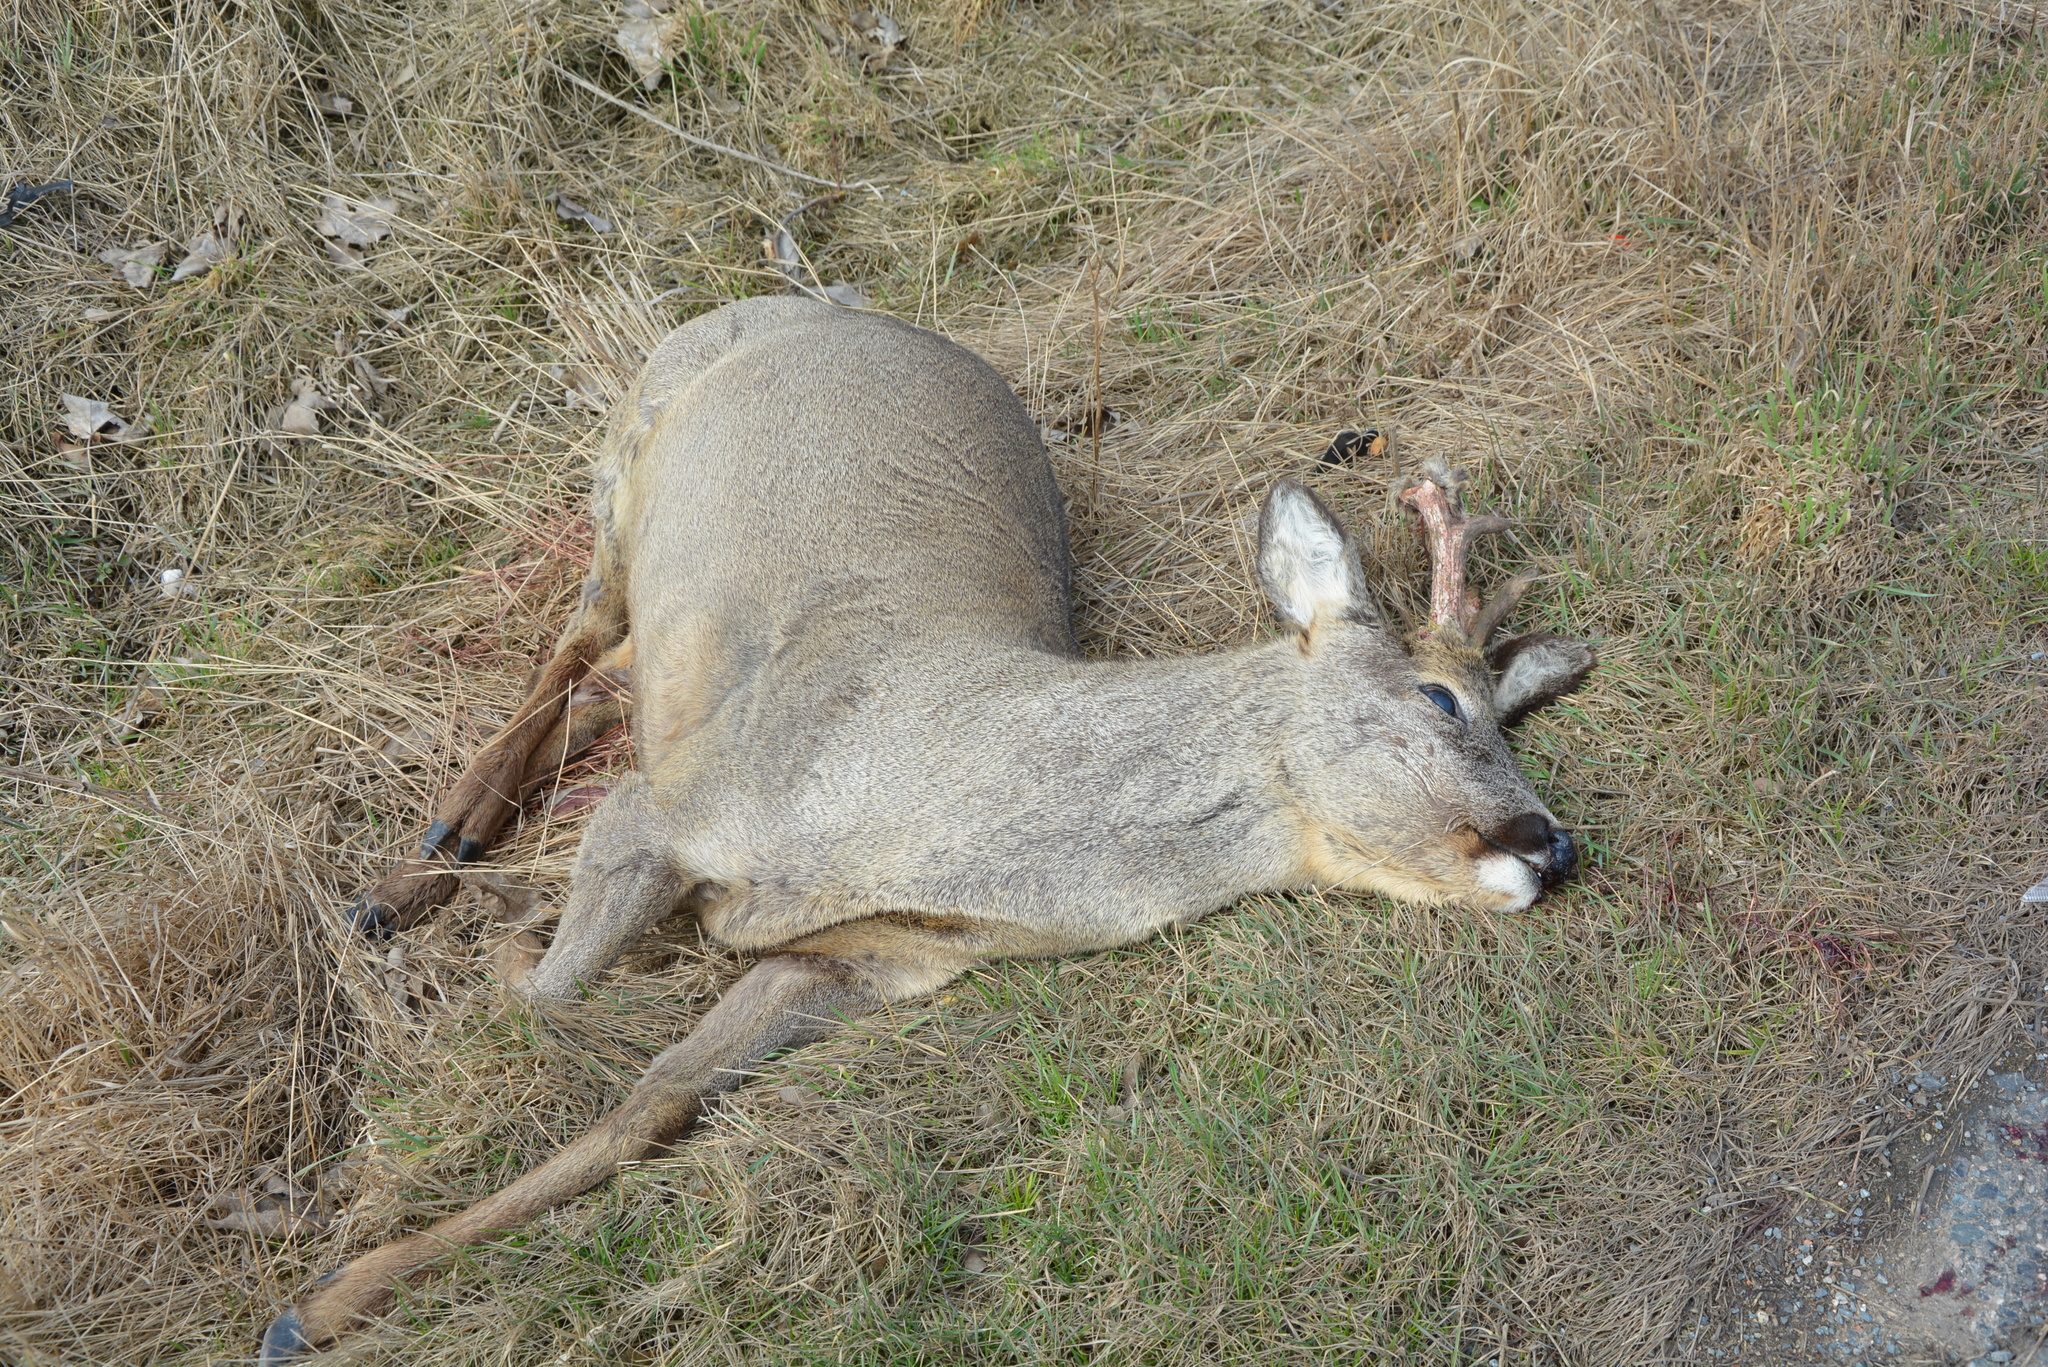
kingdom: Animalia
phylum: Chordata
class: Mammalia
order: Artiodactyla
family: Cervidae
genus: Capreolus
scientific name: Capreolus capreolus
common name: Western roe deer
